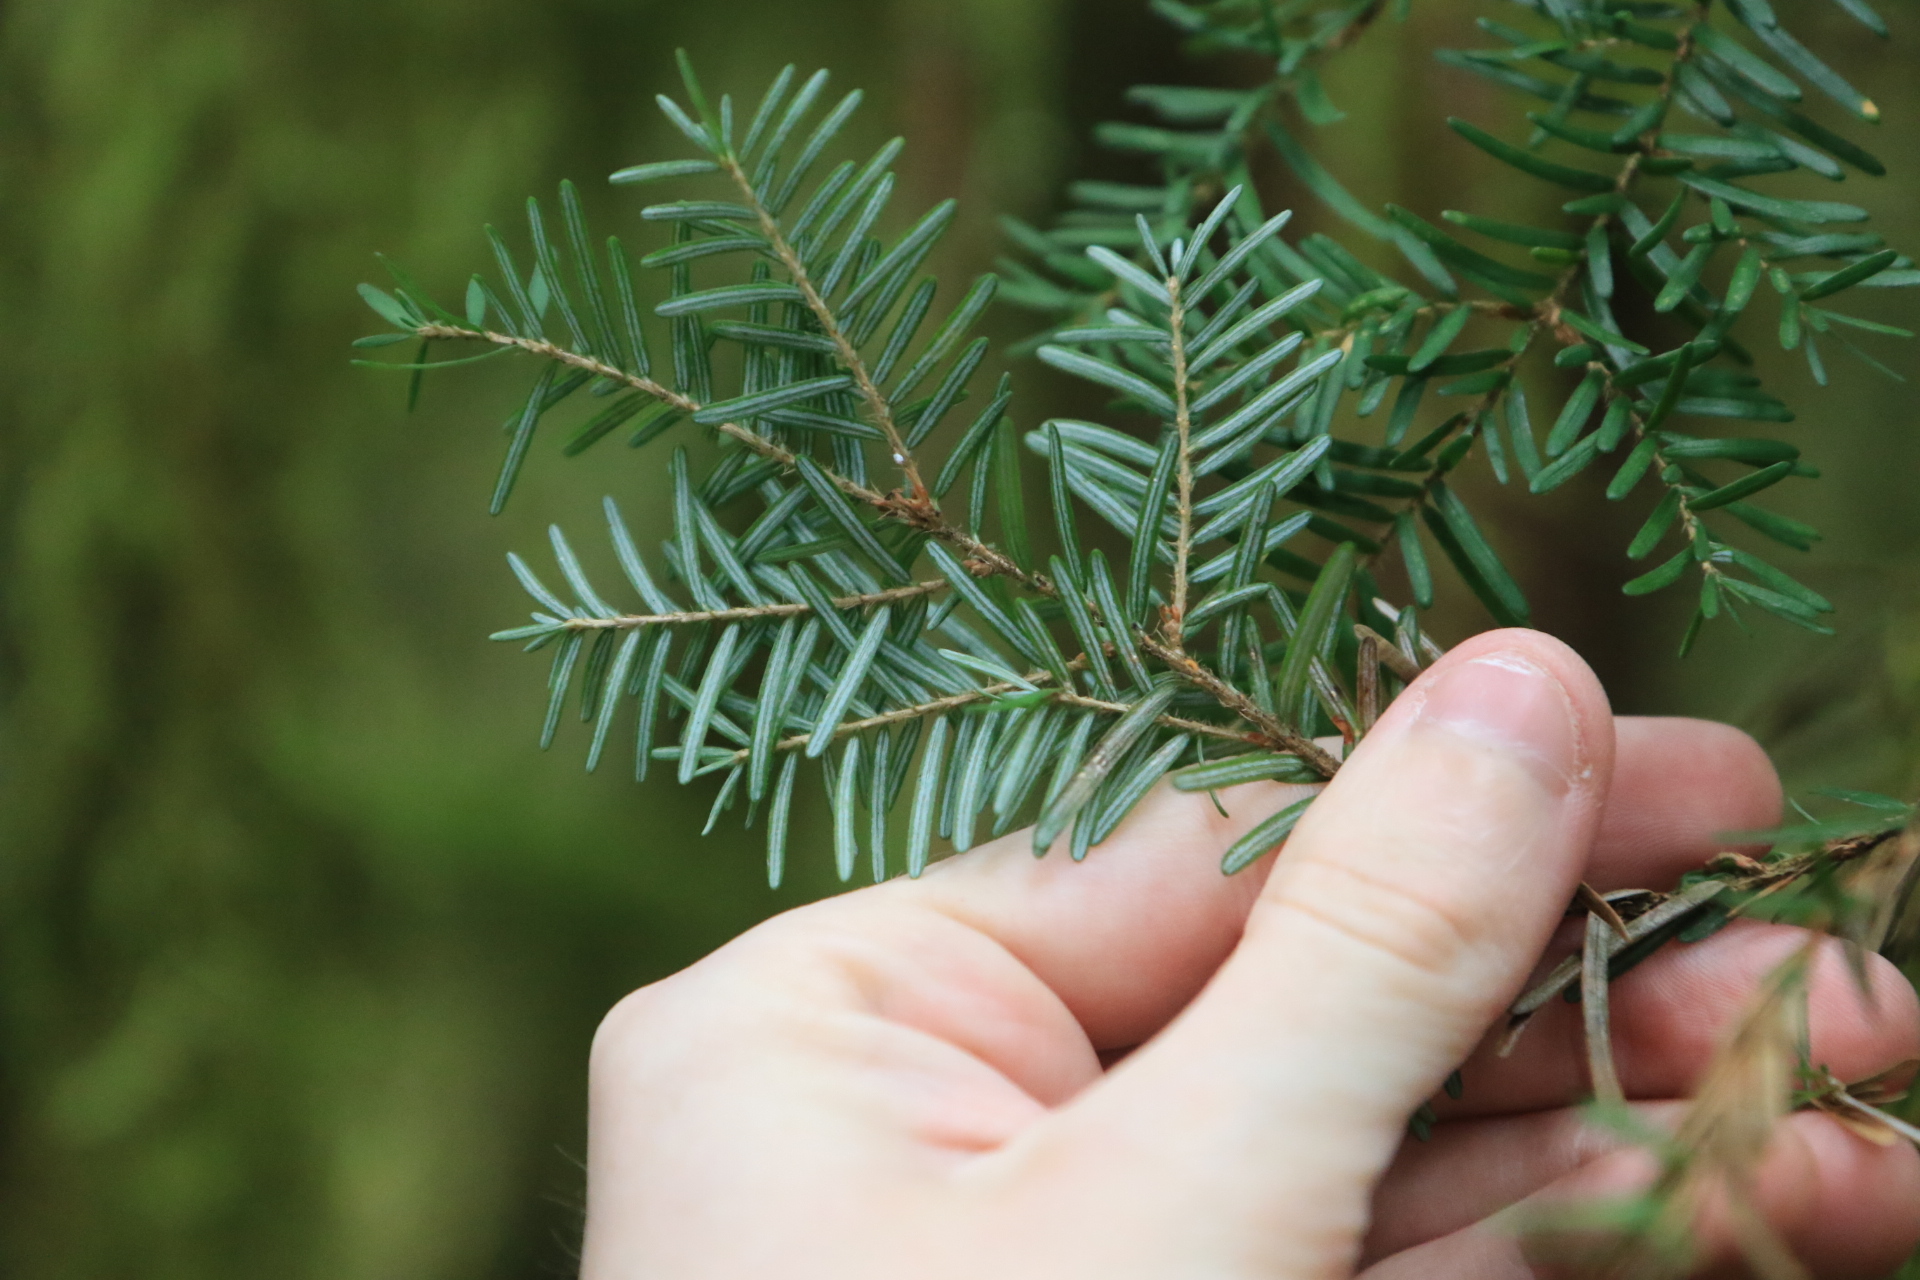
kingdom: Plantae
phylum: Tracheophyta
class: Pinopsida
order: Pinales
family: Pinaceae
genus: Tsuga
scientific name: Tsuga heterophylla
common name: Western hemlock
